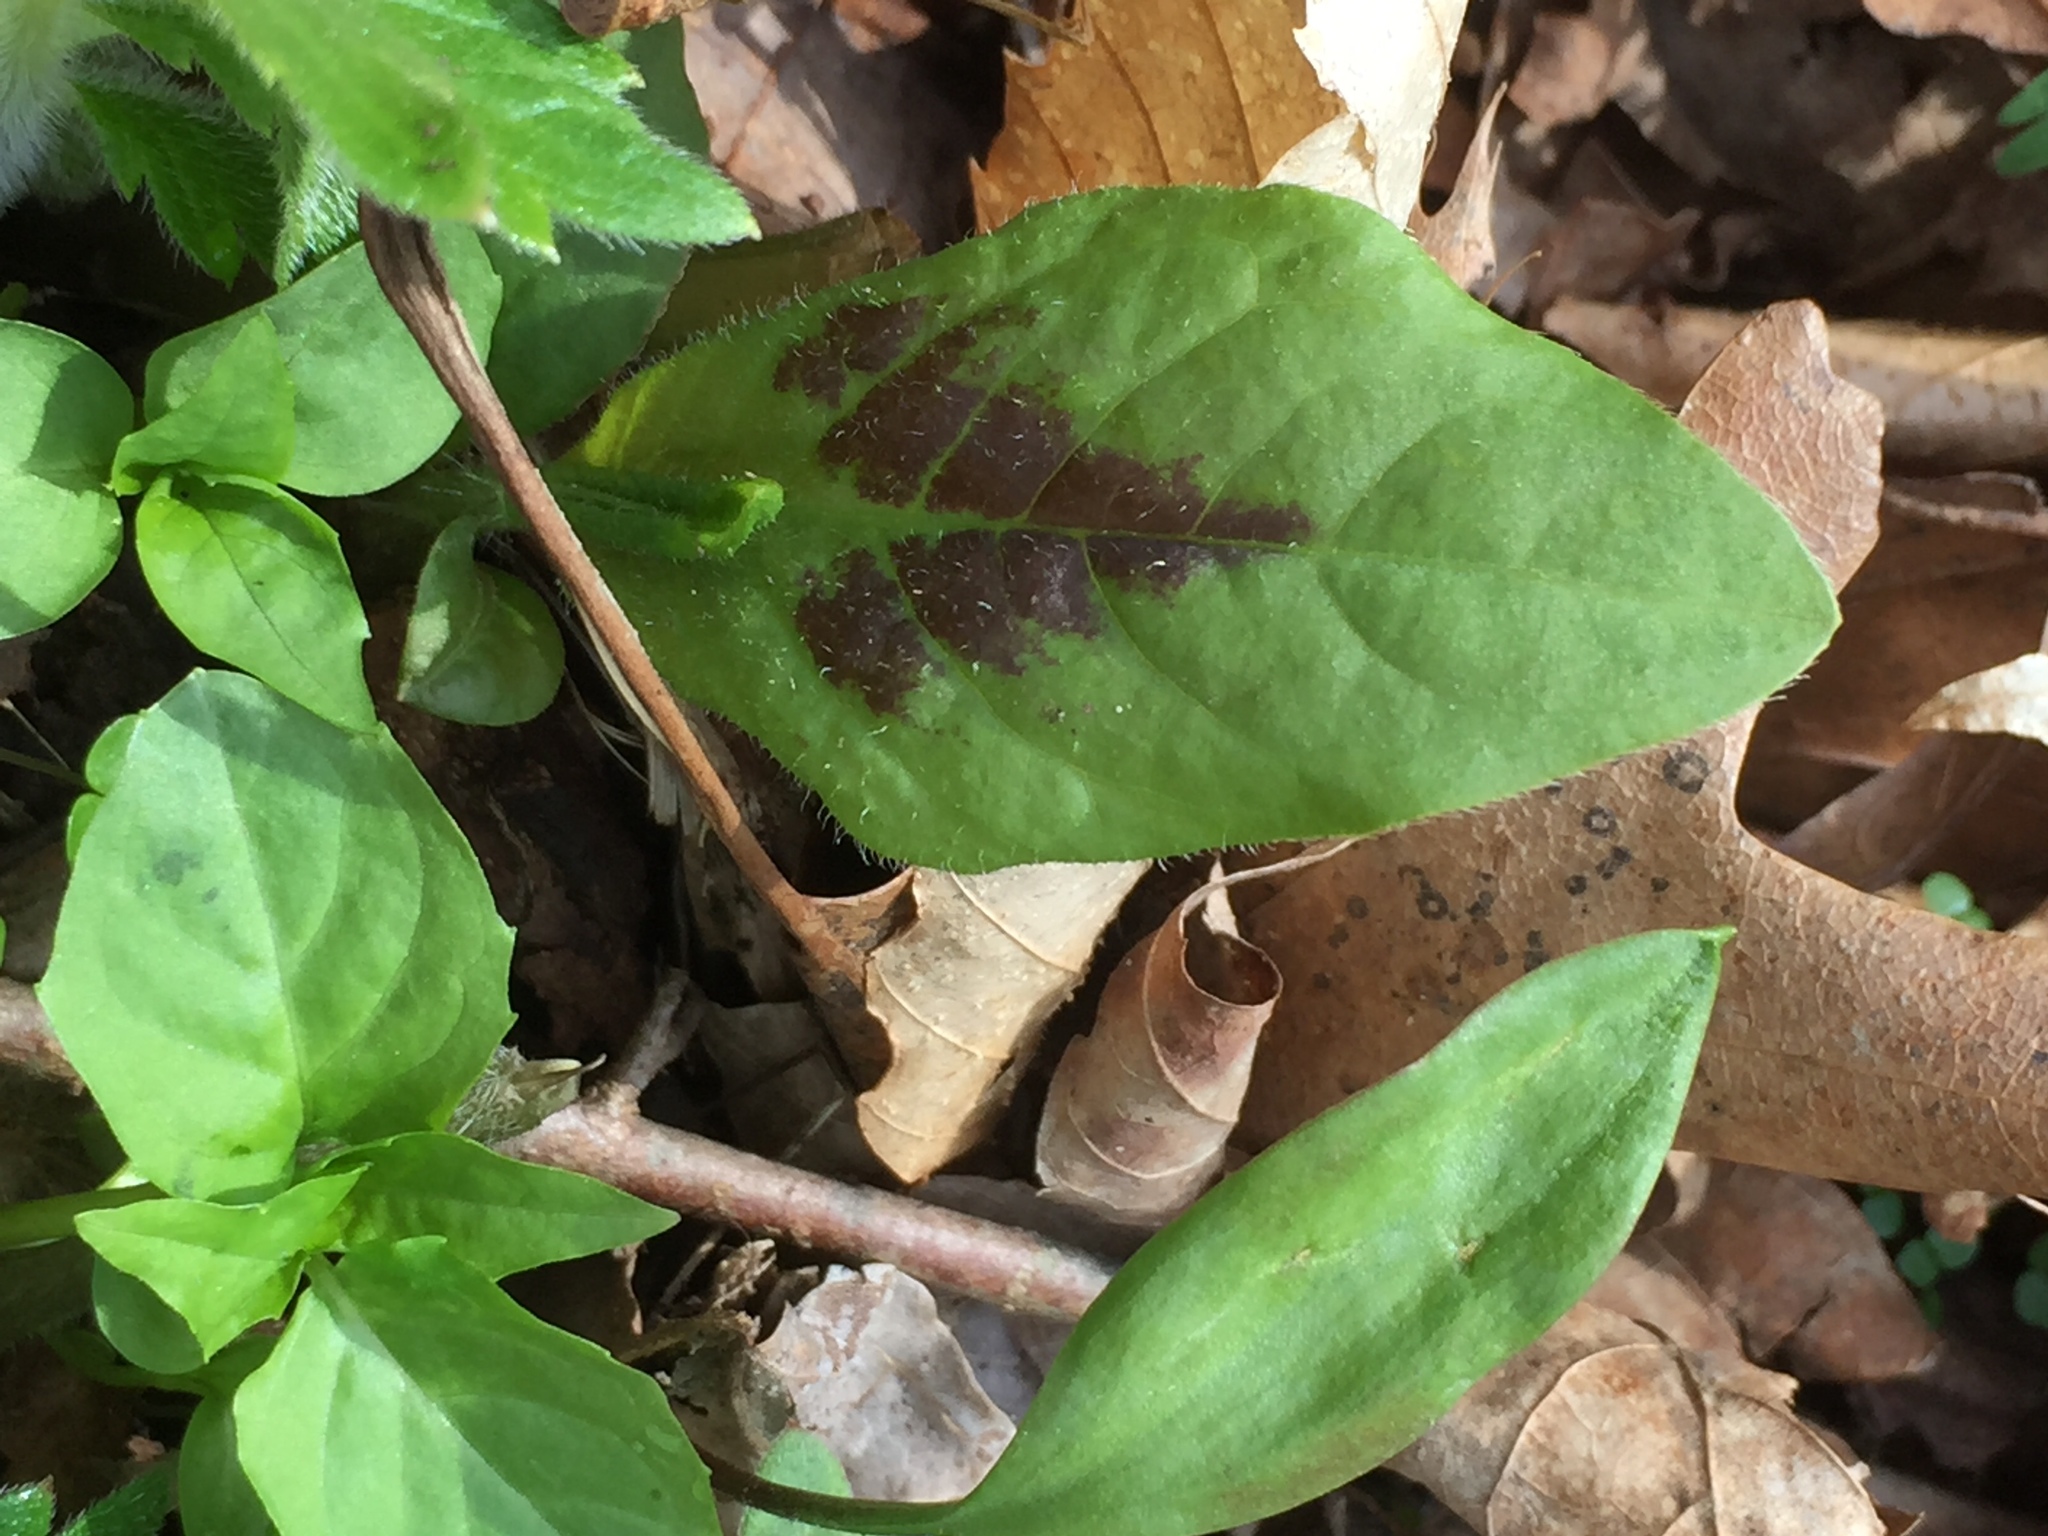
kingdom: Plantae
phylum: Tracheophyta
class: Magnoliopsida
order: Caryophyllales
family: Polygonaceae
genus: Persicaria
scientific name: Persicaria virginiana
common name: Jumpseed
